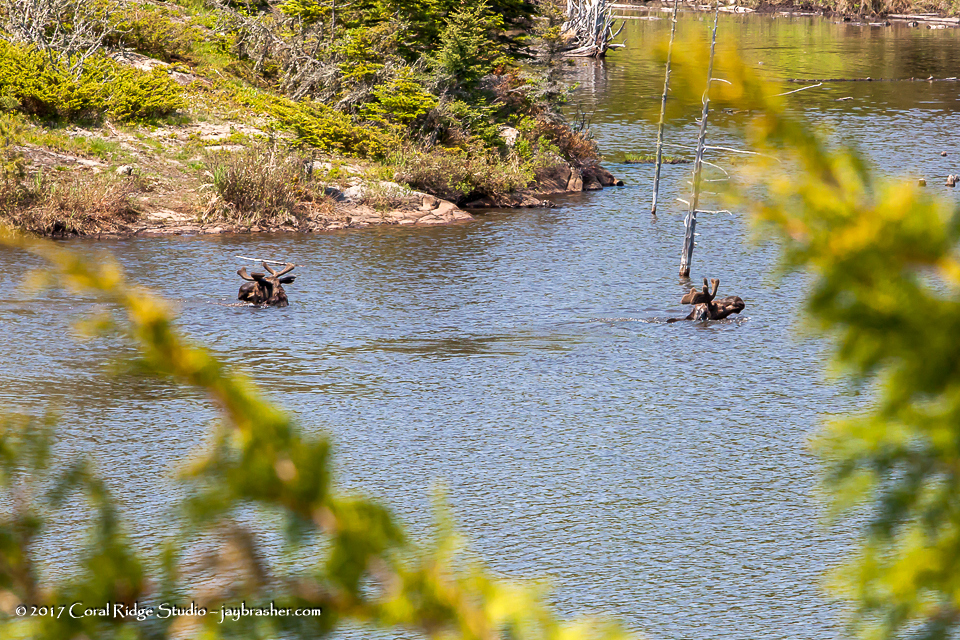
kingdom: Animalia
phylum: Chordata
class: Mammalia
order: Artiodactyla
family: Cervidae
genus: Alces
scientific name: Alces alces
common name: Moose
